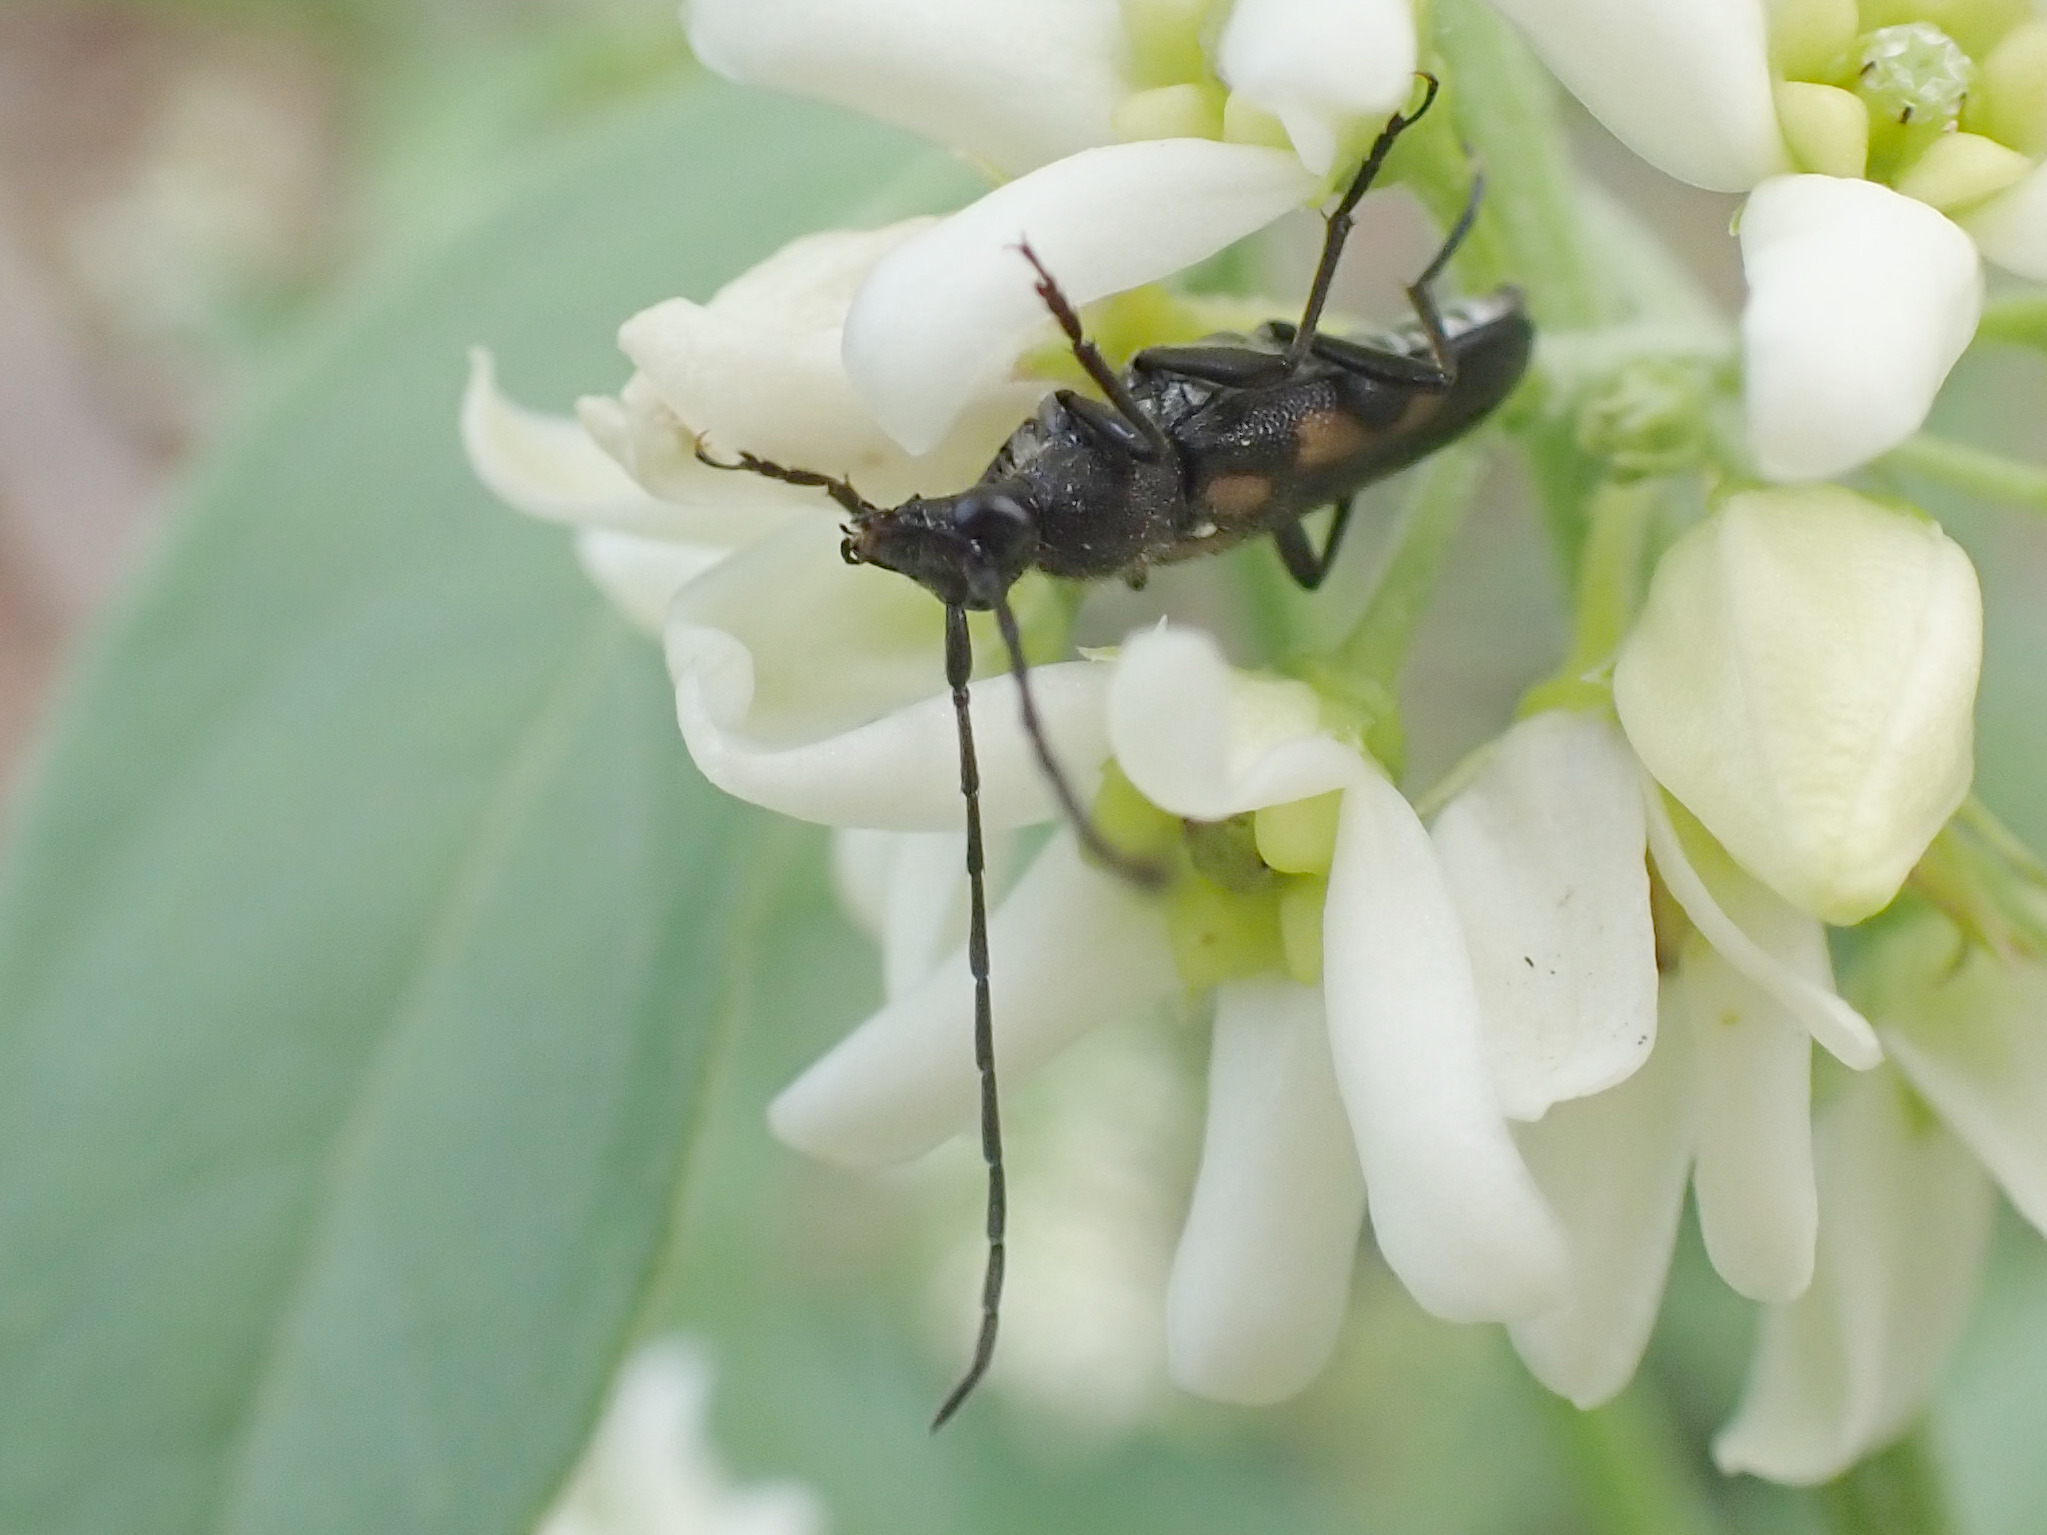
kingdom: Animalia
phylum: Arthropoda
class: Insecta
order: Coleoptera
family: Cerambycidae
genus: Anoplodera
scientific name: Anoplodera sexguttata
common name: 6 spotted longhorn
